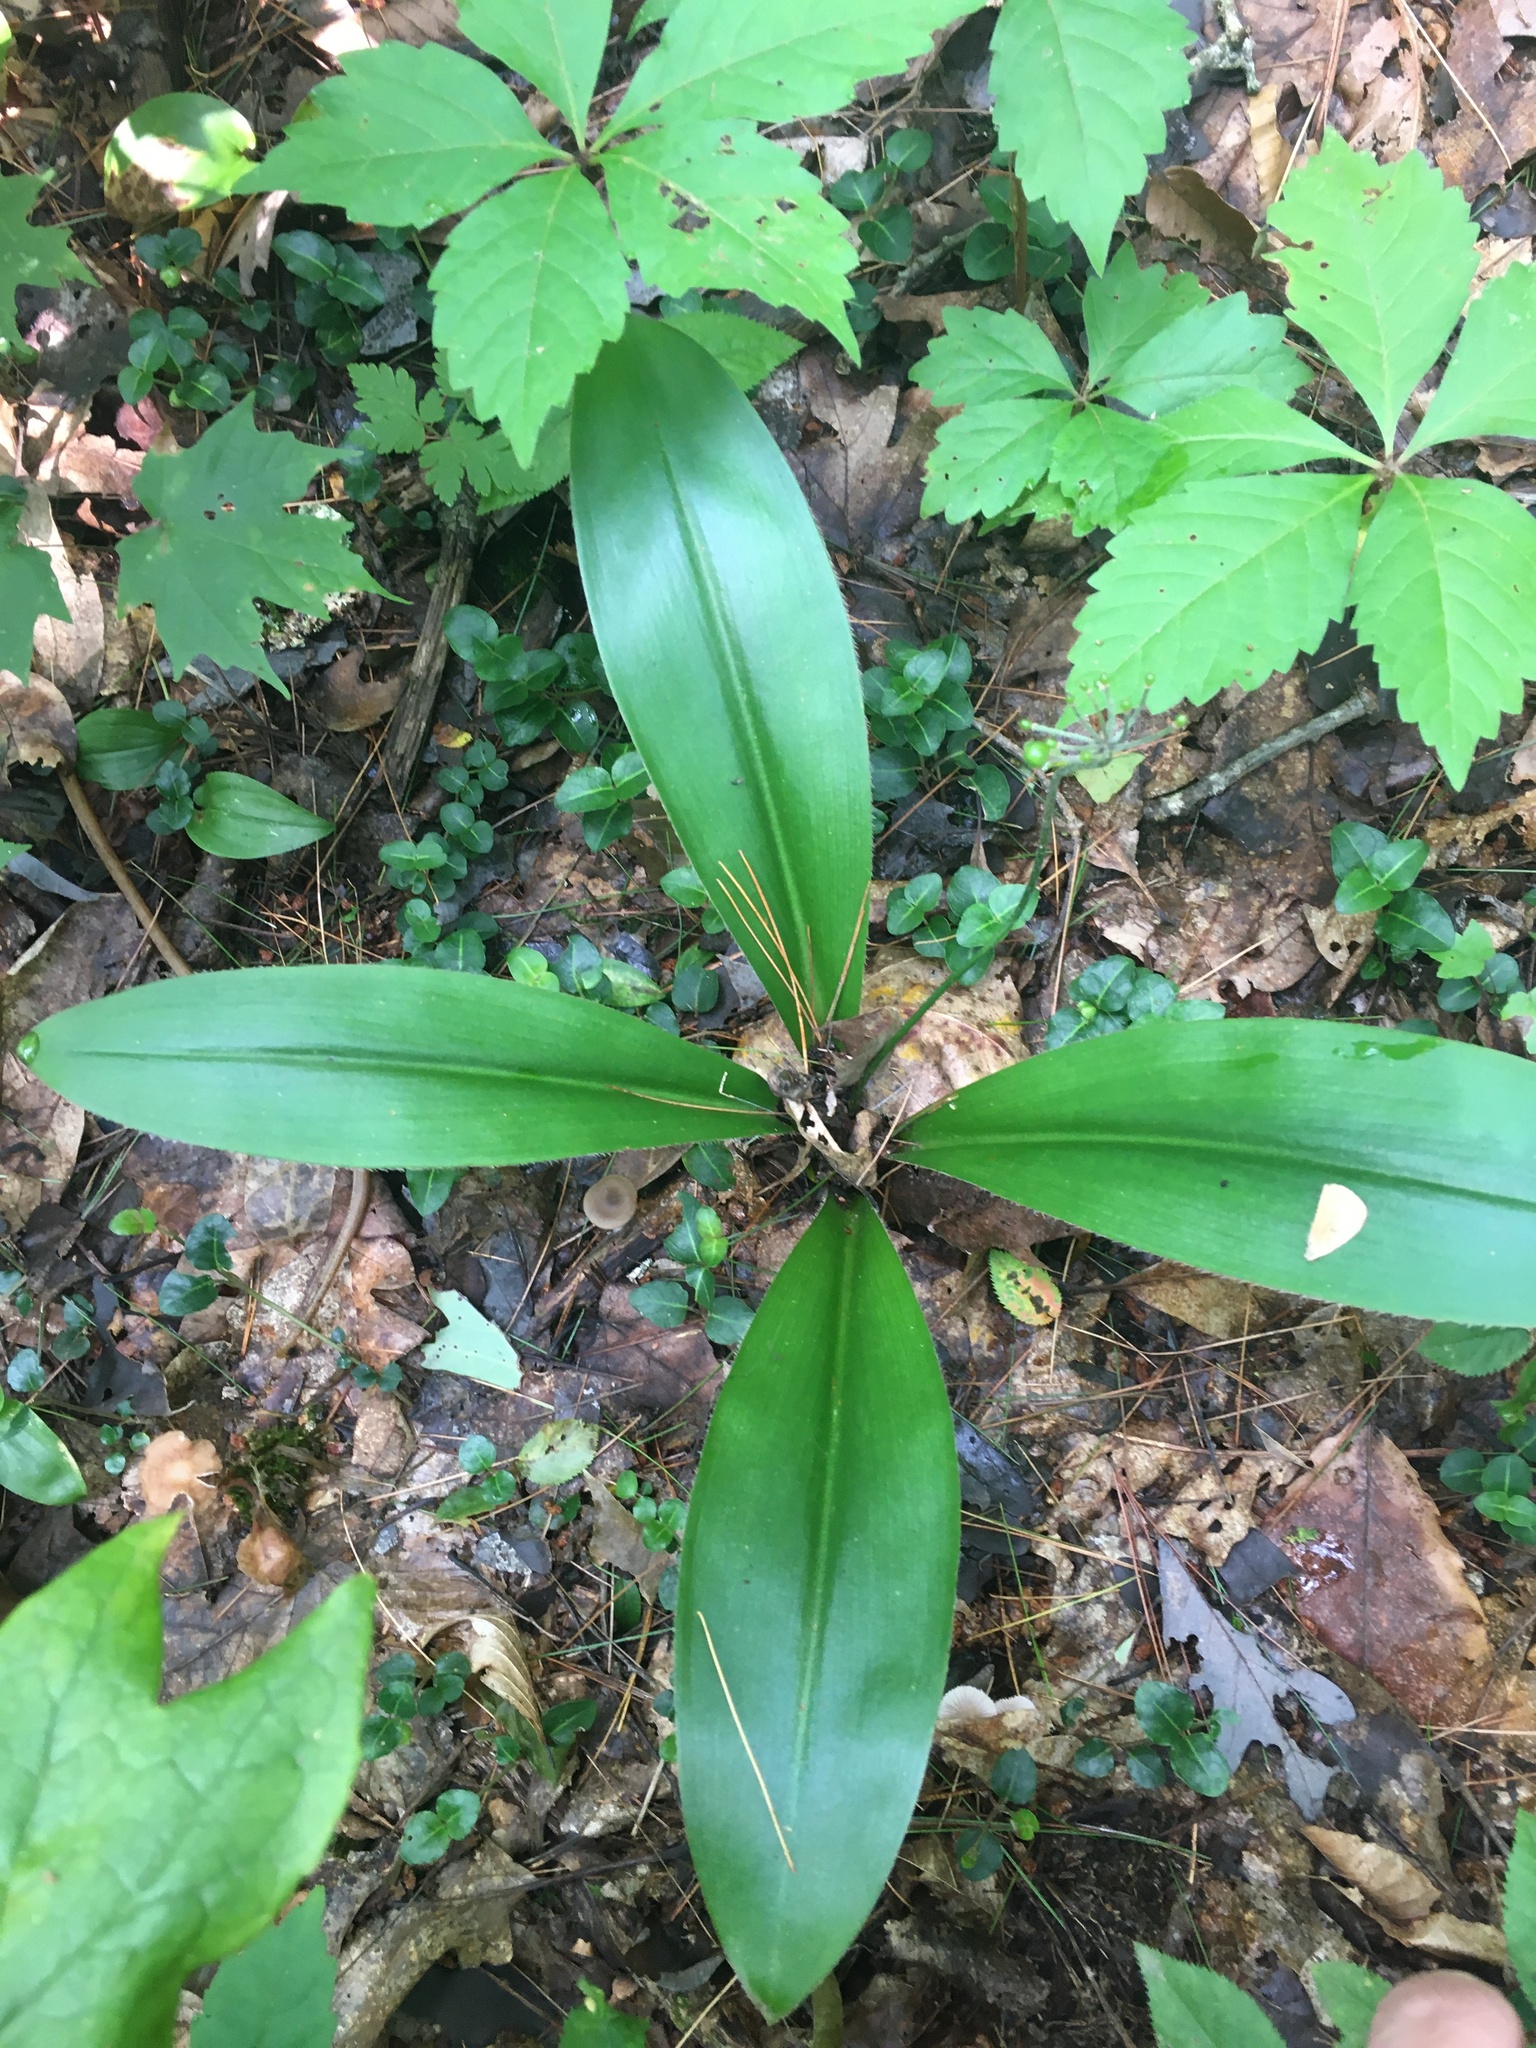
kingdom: Plantae
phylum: Tracheophyta
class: Liliopsida
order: Liliales
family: Liliaceae
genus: Clintonia
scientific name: Clintonia umbellulata
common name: Speckle wood-lily
